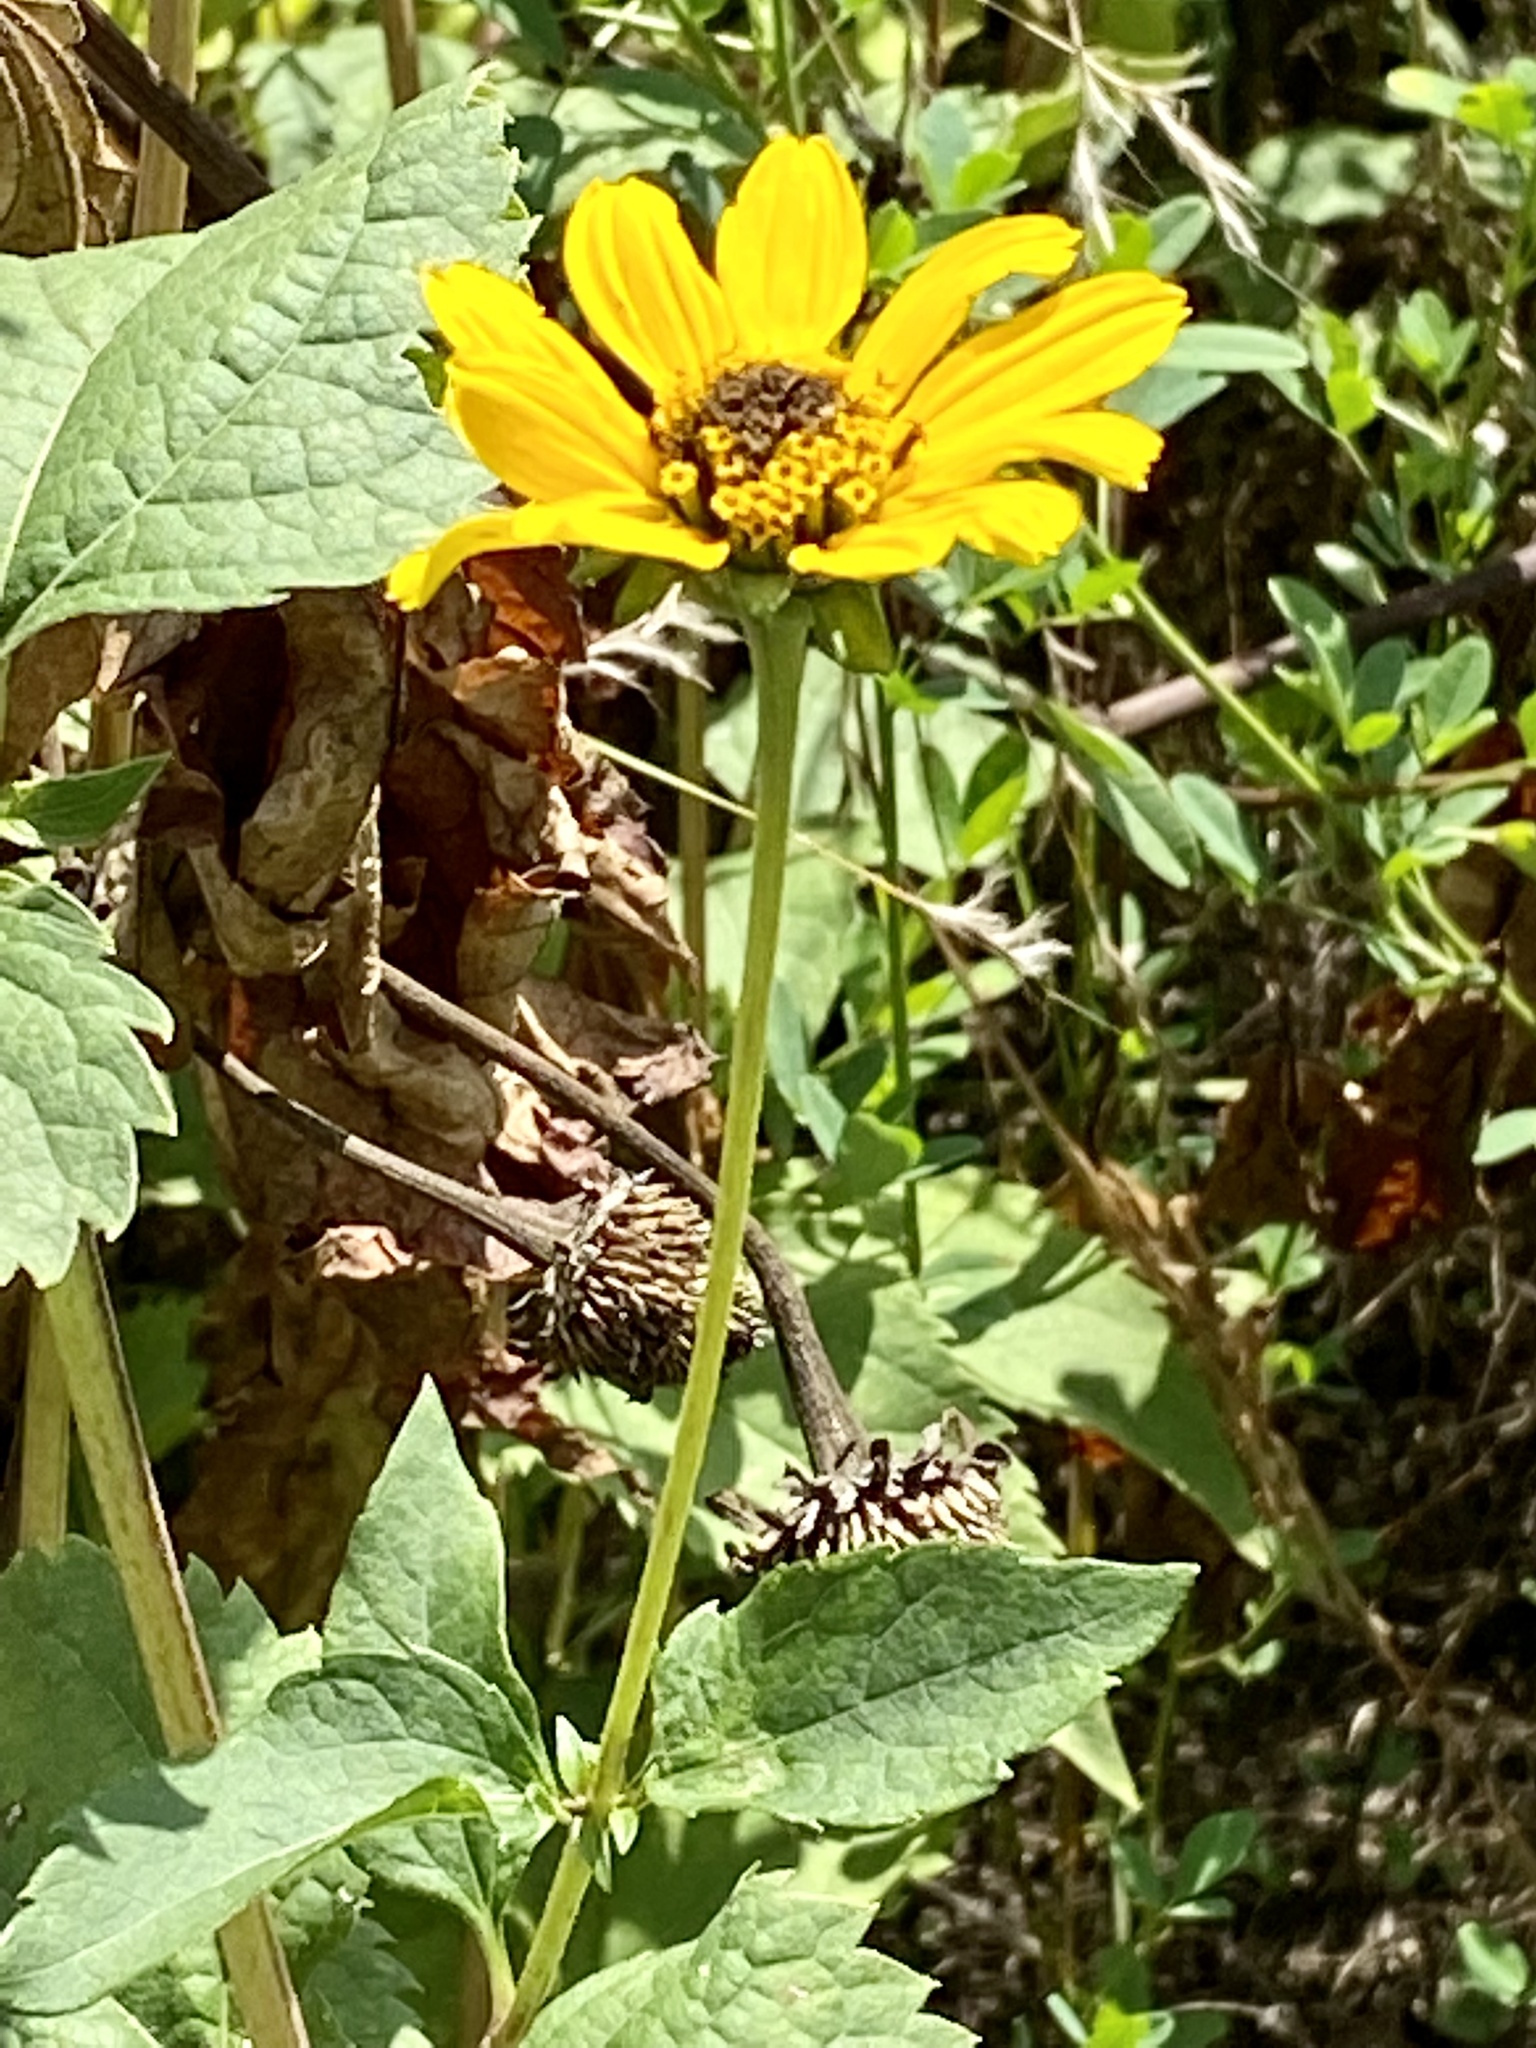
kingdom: Plantae
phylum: Tracheophyta
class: Magnoliopsida
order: Asterales
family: Asteraceae
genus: Heliopsis
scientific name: Heliopsis helianthoides
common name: False sunflower
